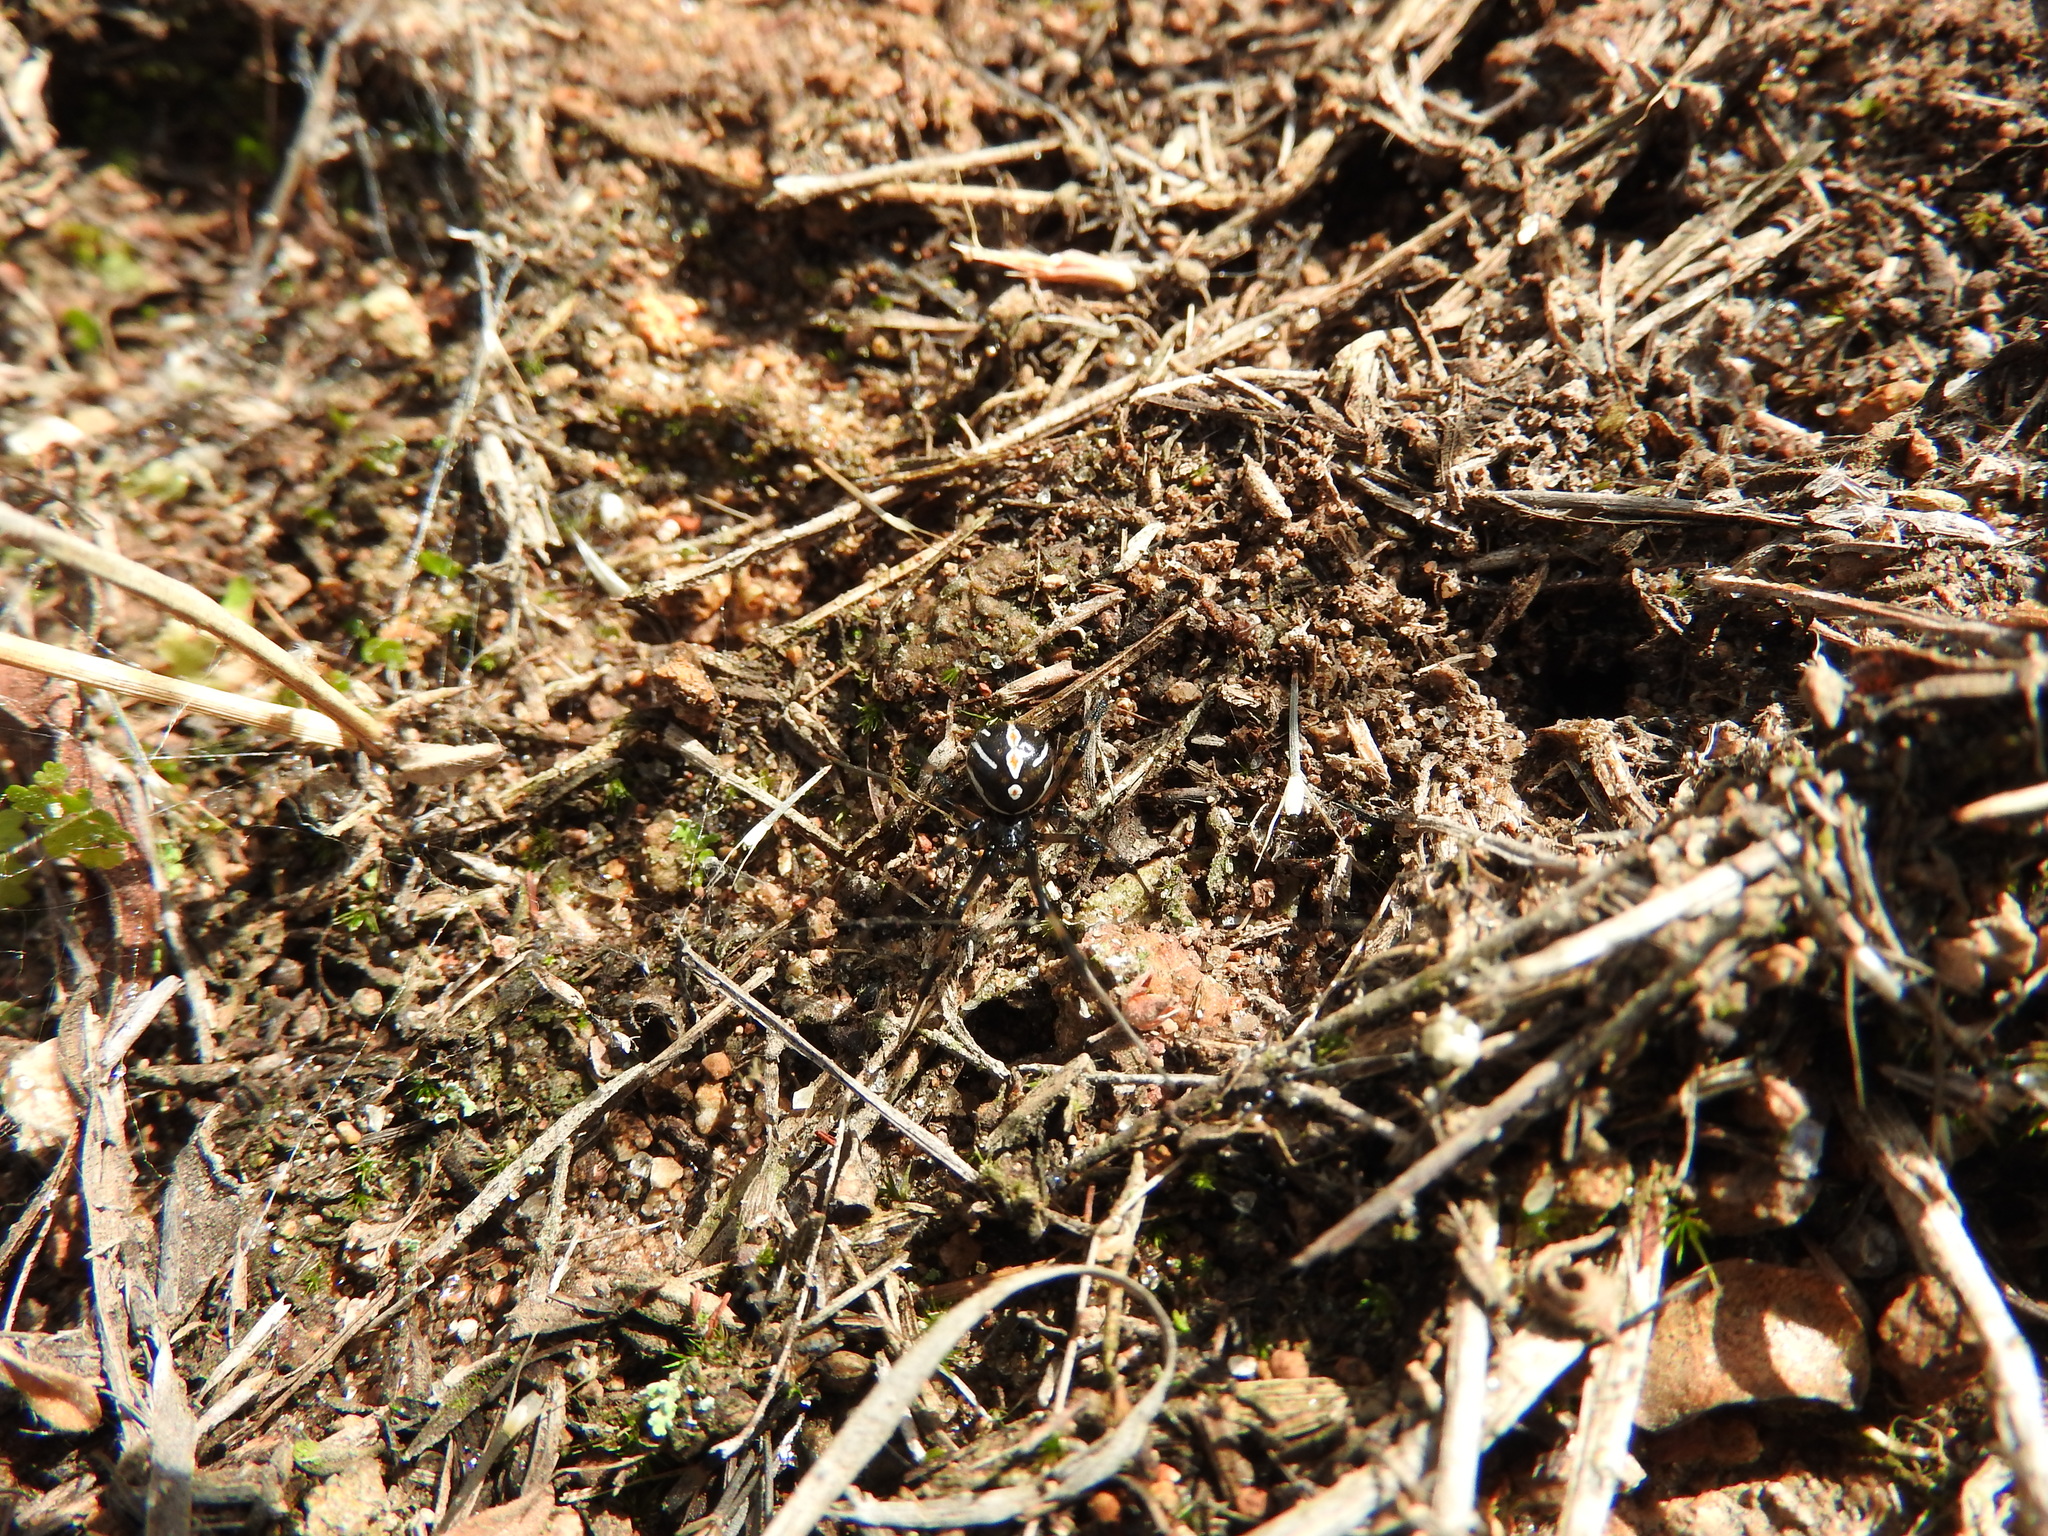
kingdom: Animalia
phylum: Arthropoda
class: Arachnida
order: Araneae
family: Theridiidae
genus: Latrodectus
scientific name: Latrodectus mactans
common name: Cobweb spiders
